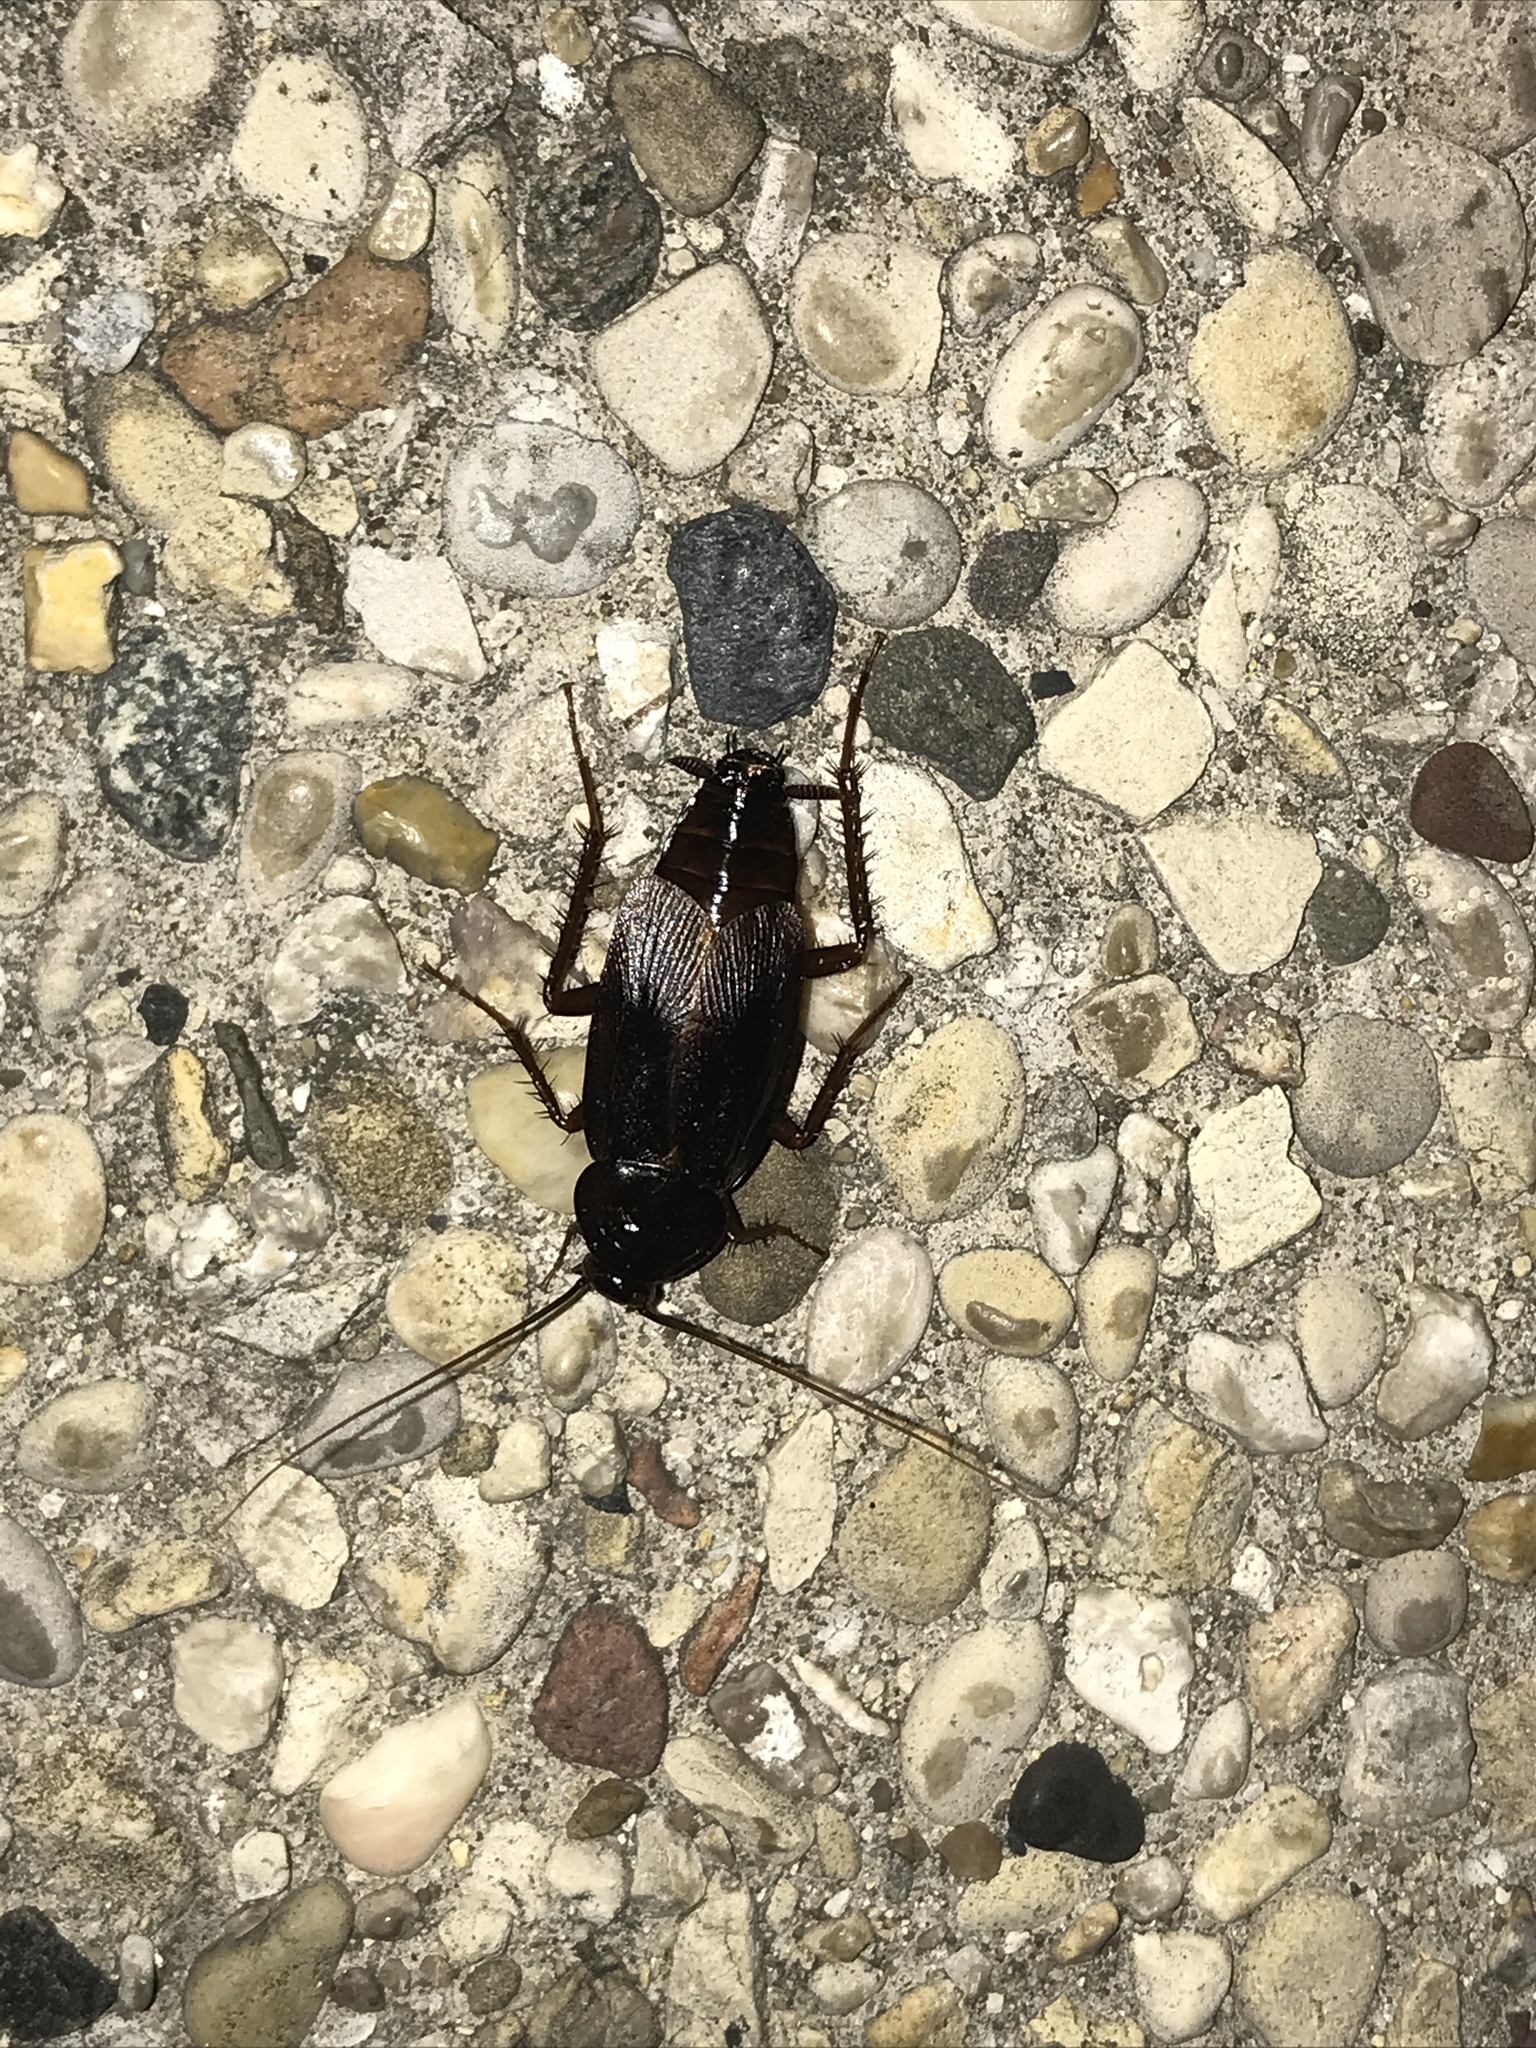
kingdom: Animalia
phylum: Arthropoda
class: Insecta
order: Blattodea
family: Blattidae
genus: Blatta
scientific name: Blatta orientalis
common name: Oriental cockroach
